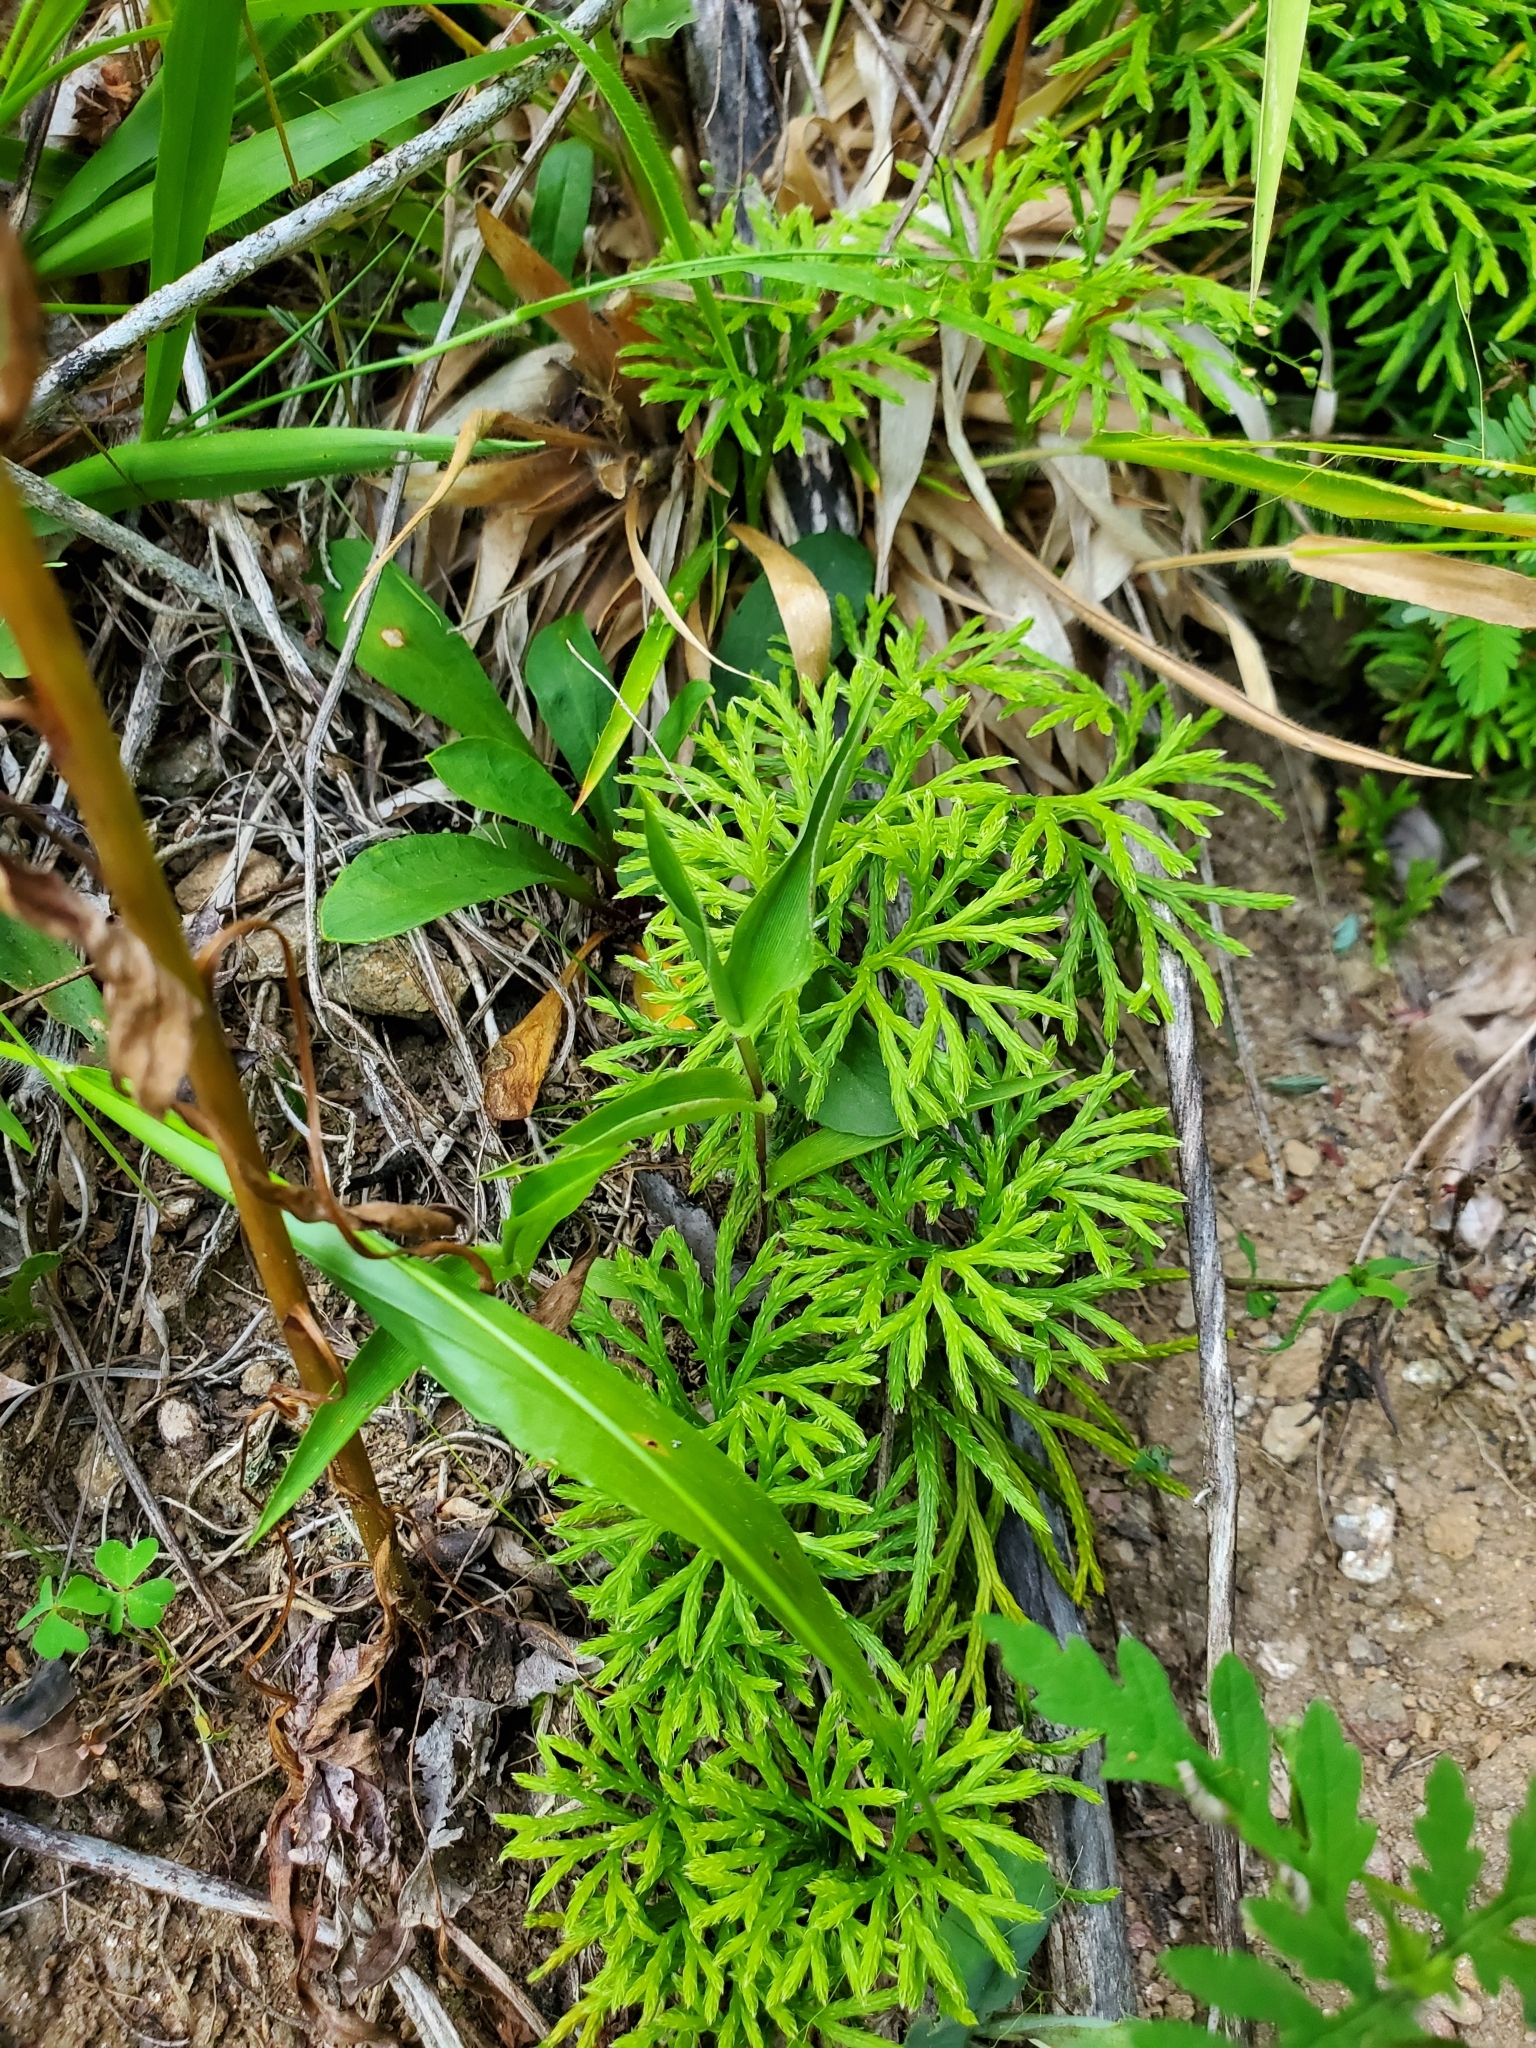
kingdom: Plantae
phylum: Tracheophyta
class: Lycopodiopsida
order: Lycopodiales
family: Lycopodiaceae
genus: Diphasiastrum
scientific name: Diphasiastrum digitatum
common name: Southern running-pine
